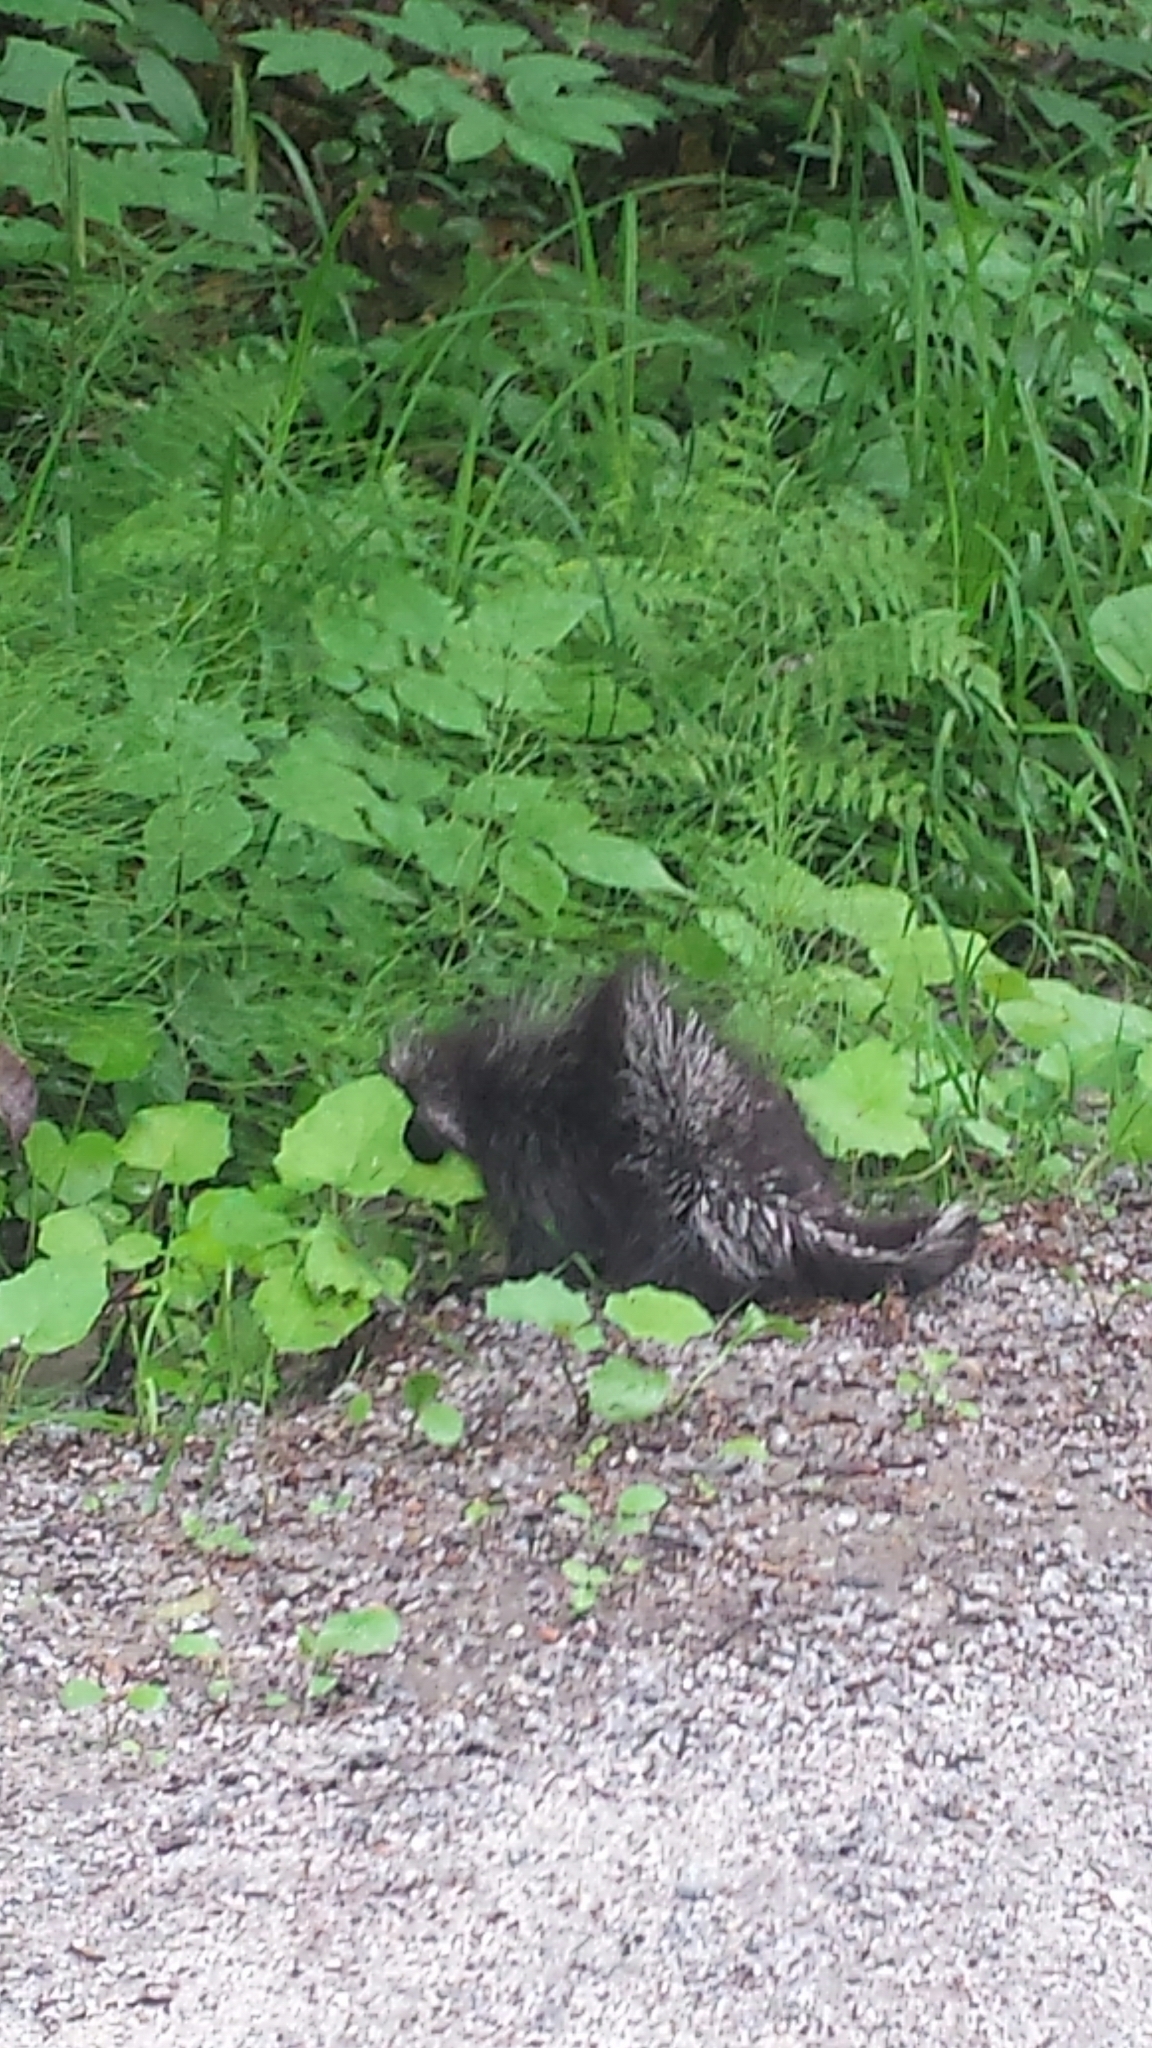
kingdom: Animalia
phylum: Chordata
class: Mammalia
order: Rodentia
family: Erethizontidae
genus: Erethizon
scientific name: Erethizon dorsatus
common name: North american porcupine
